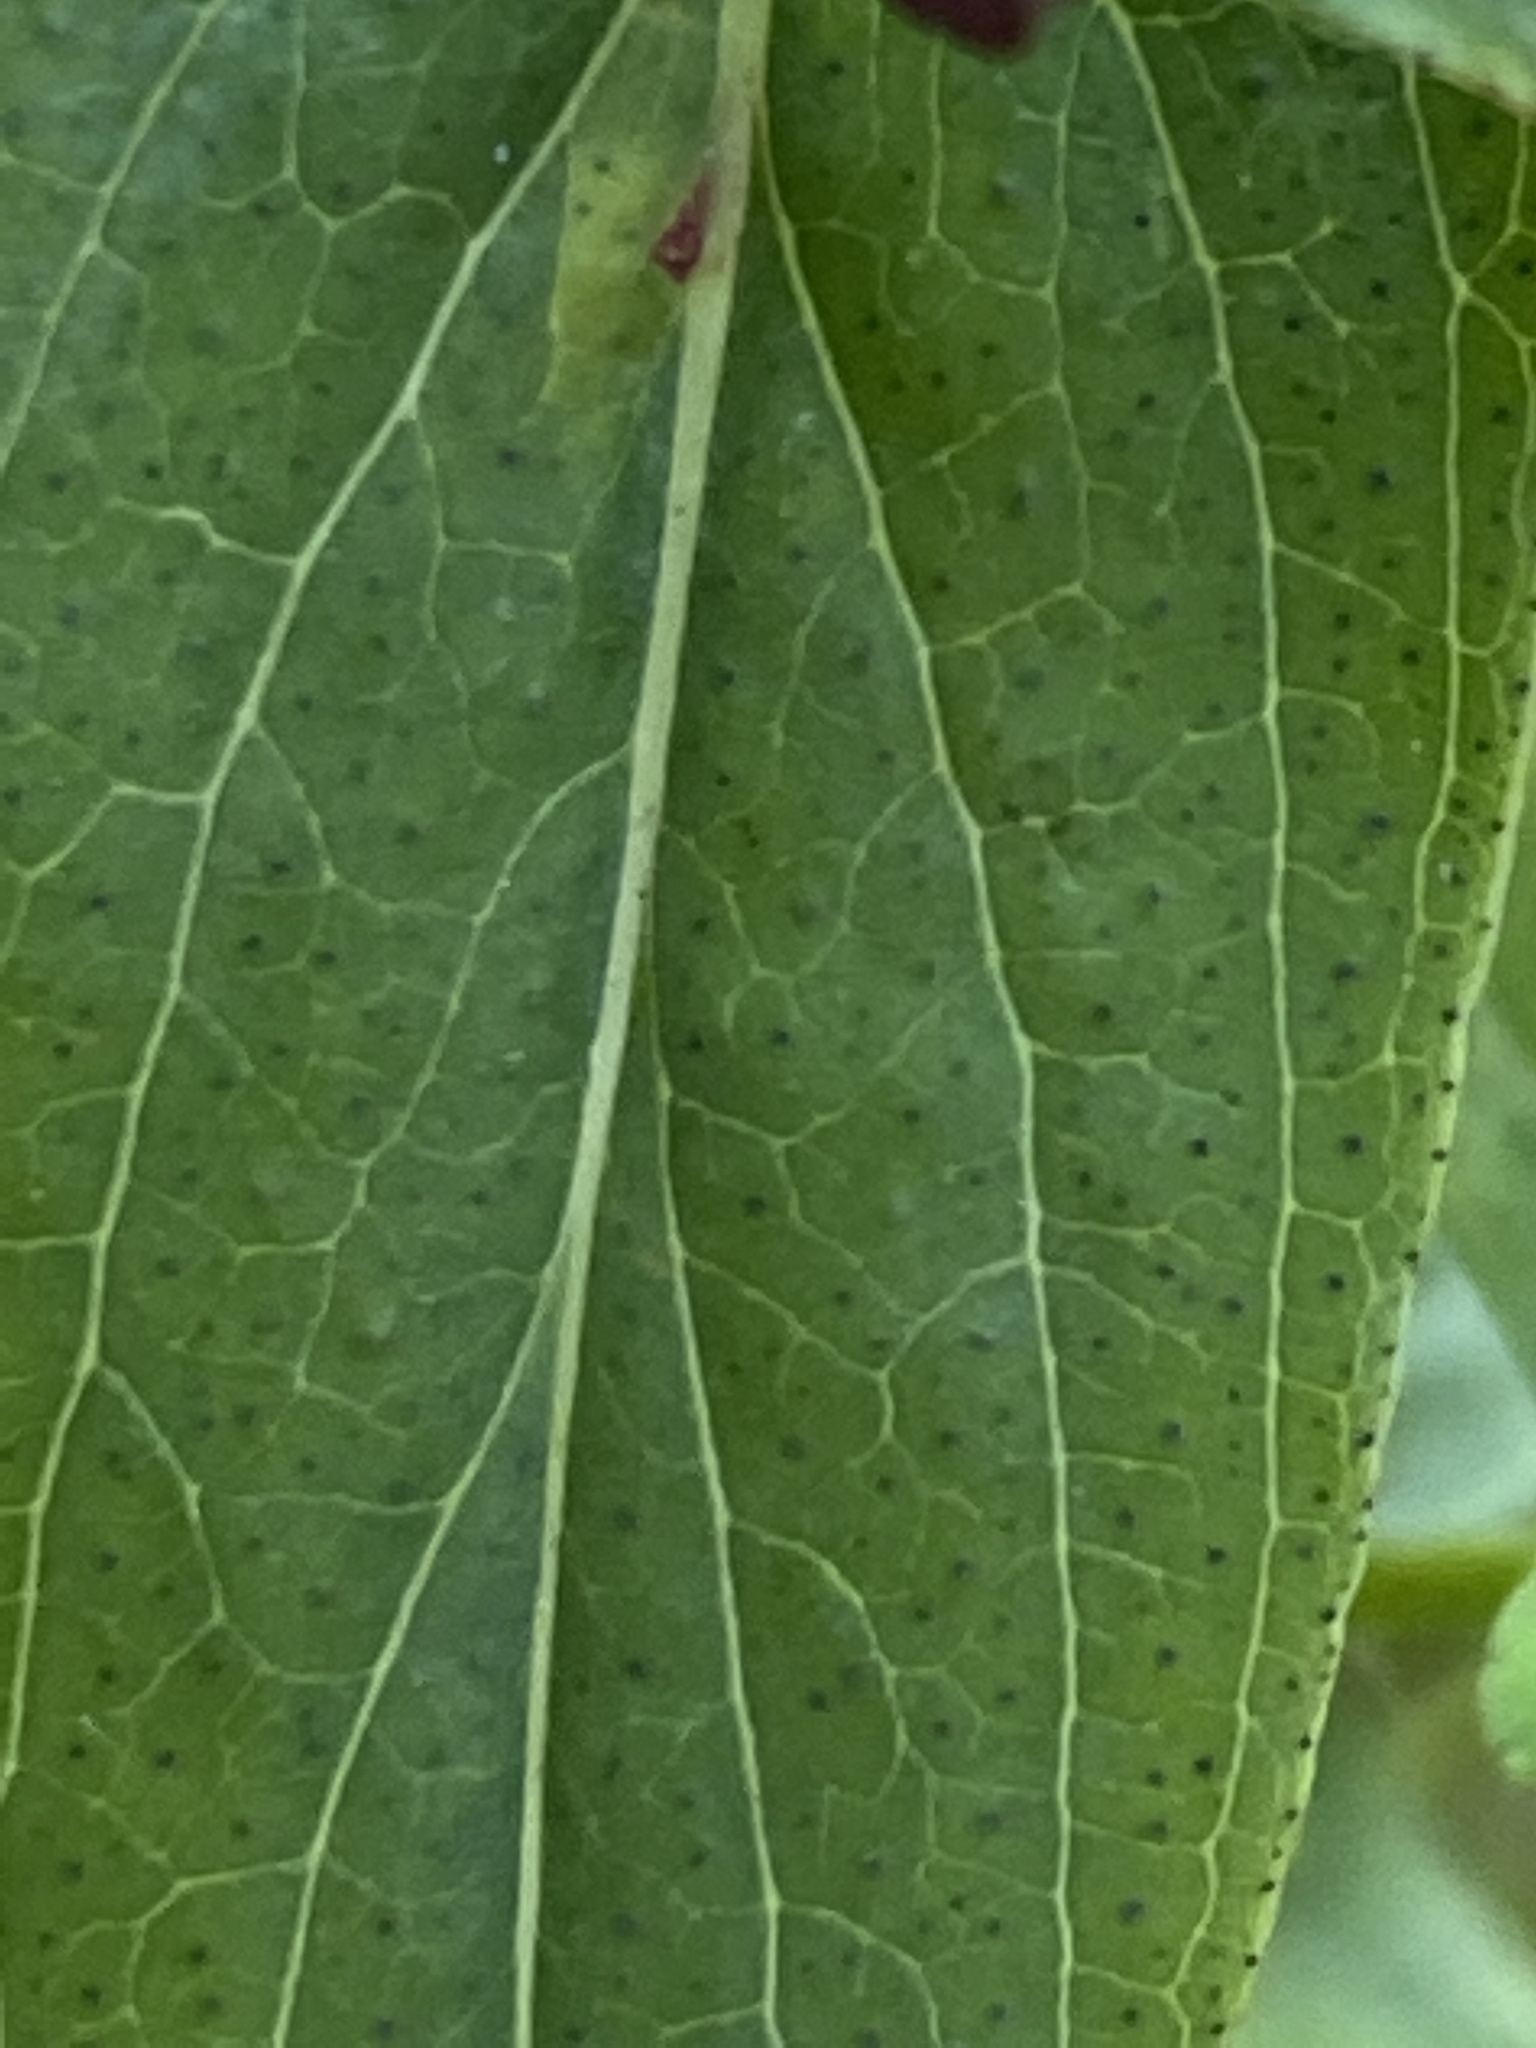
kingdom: Plantae
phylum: Tracheophyta
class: Magnoliopsida
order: Malpighiales
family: Hypericaceae
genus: Hypericum
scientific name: Hypericum punctatum
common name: Spotted st. john's-wort
